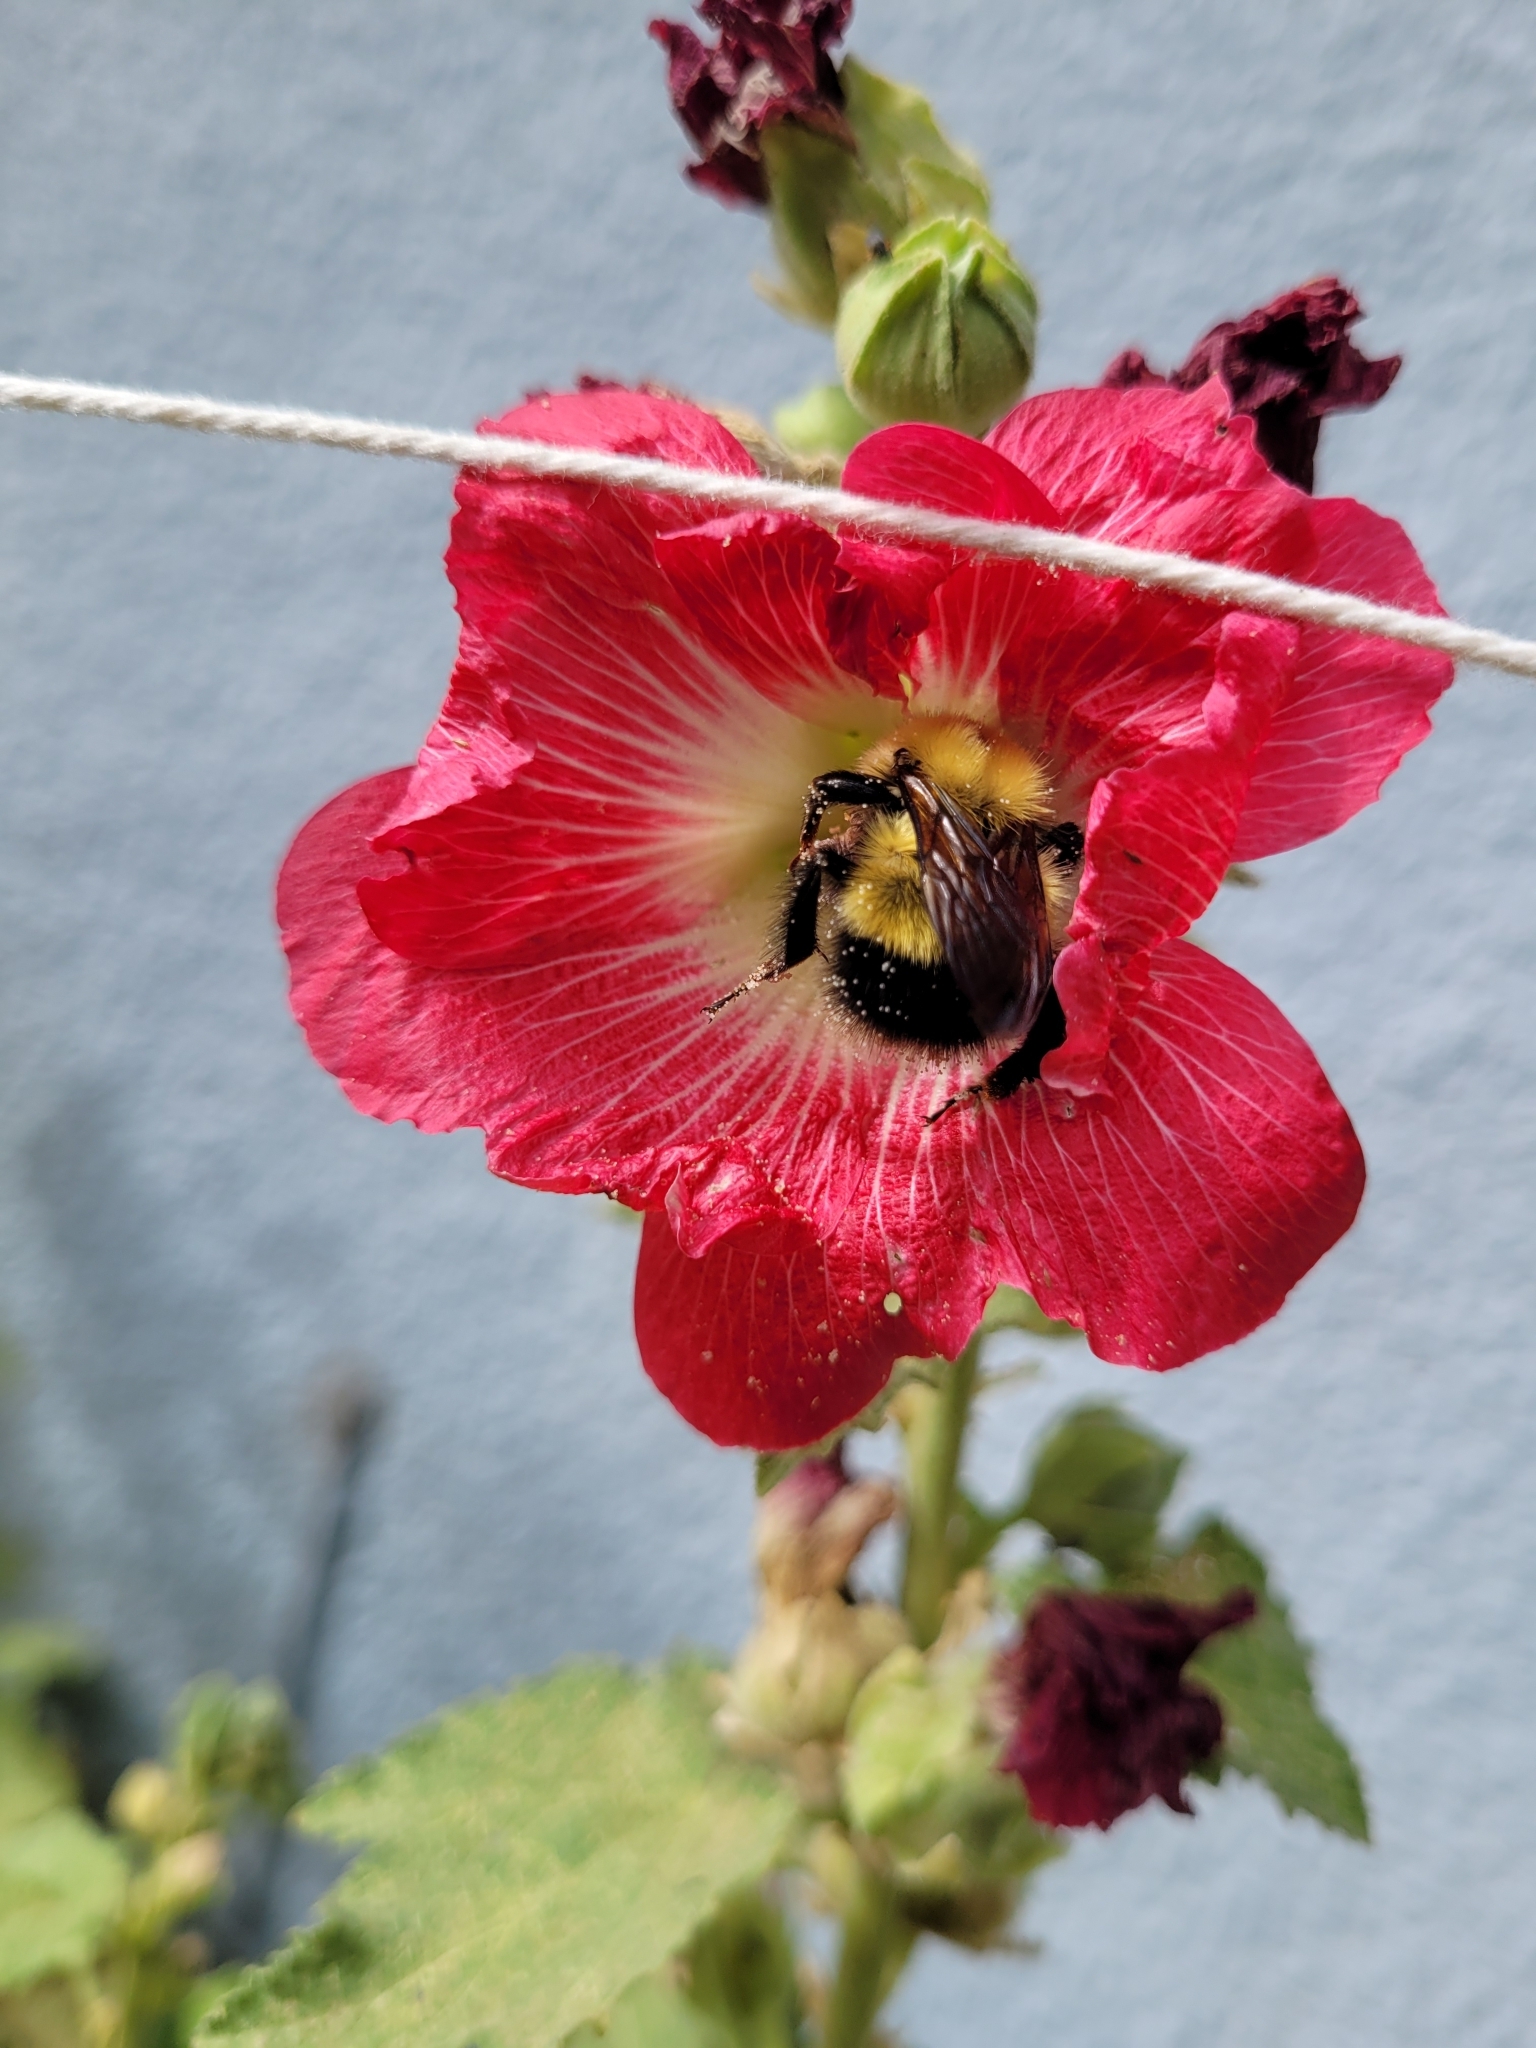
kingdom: Animalia
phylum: Arthropoda
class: Insecta
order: Hymenoptera
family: Apidae
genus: Bombus
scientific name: Bombus perplexus
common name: Confusing bumble bee
